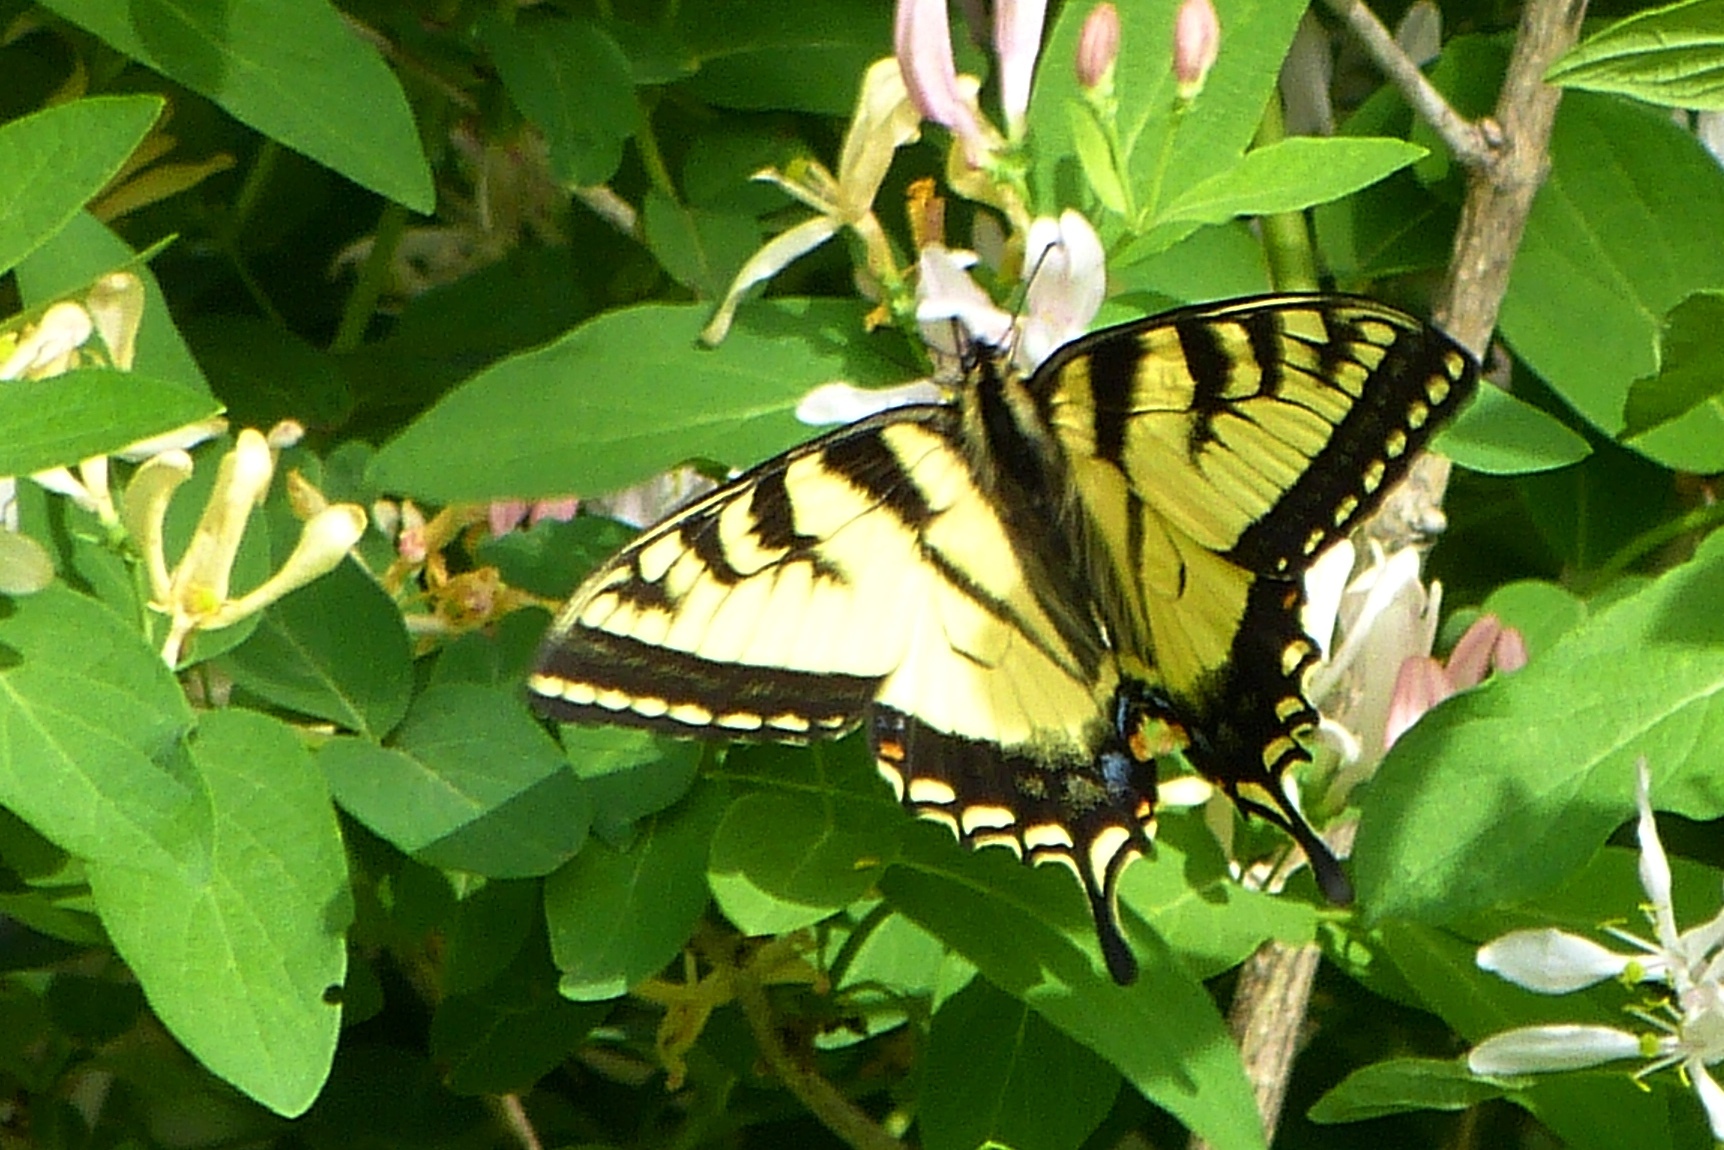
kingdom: Animalia
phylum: Arthropoda
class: Insecta
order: Lepidoptera
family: Papilionidae
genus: Papilio
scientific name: Papilio canadensis
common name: Canadian tiger swallowtail
